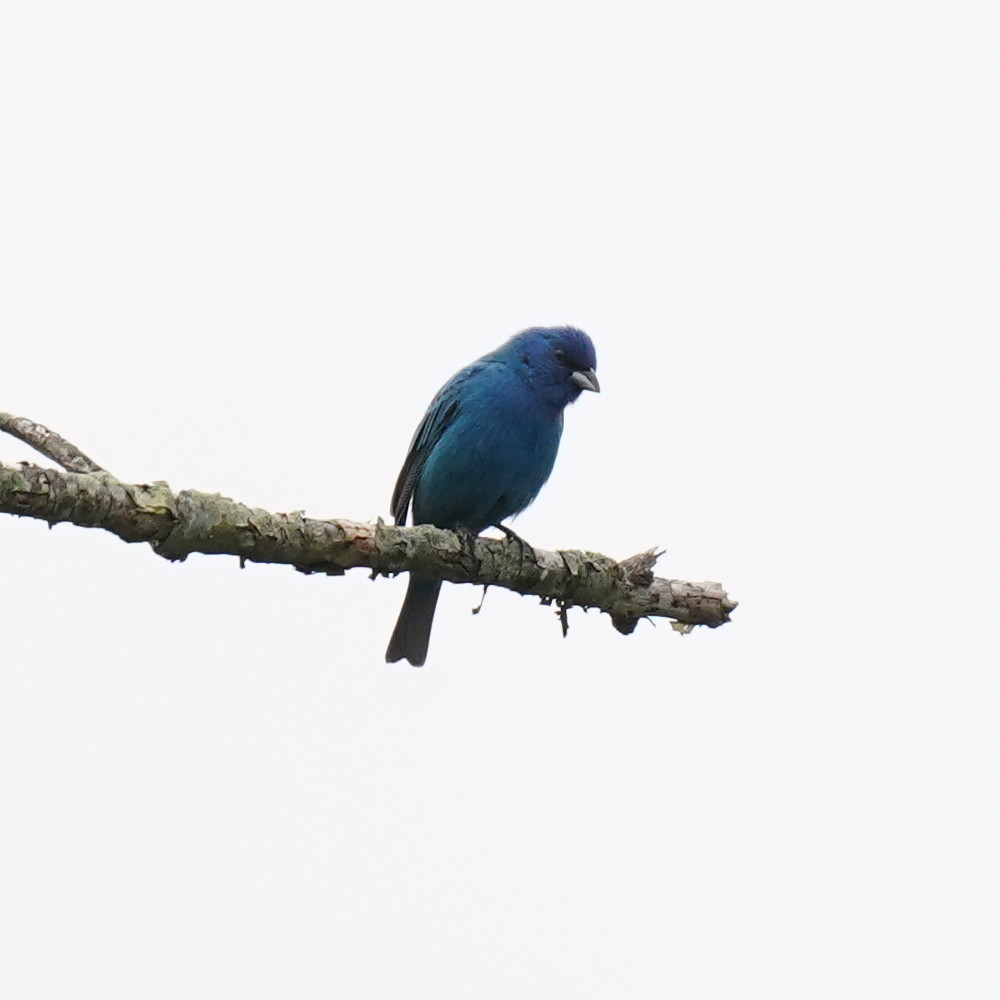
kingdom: Animalia
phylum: Chordata
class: Aves
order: Passeriformes
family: Cardinalidae
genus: Passerina
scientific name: Passerina cyanea
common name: Indigo bunting
